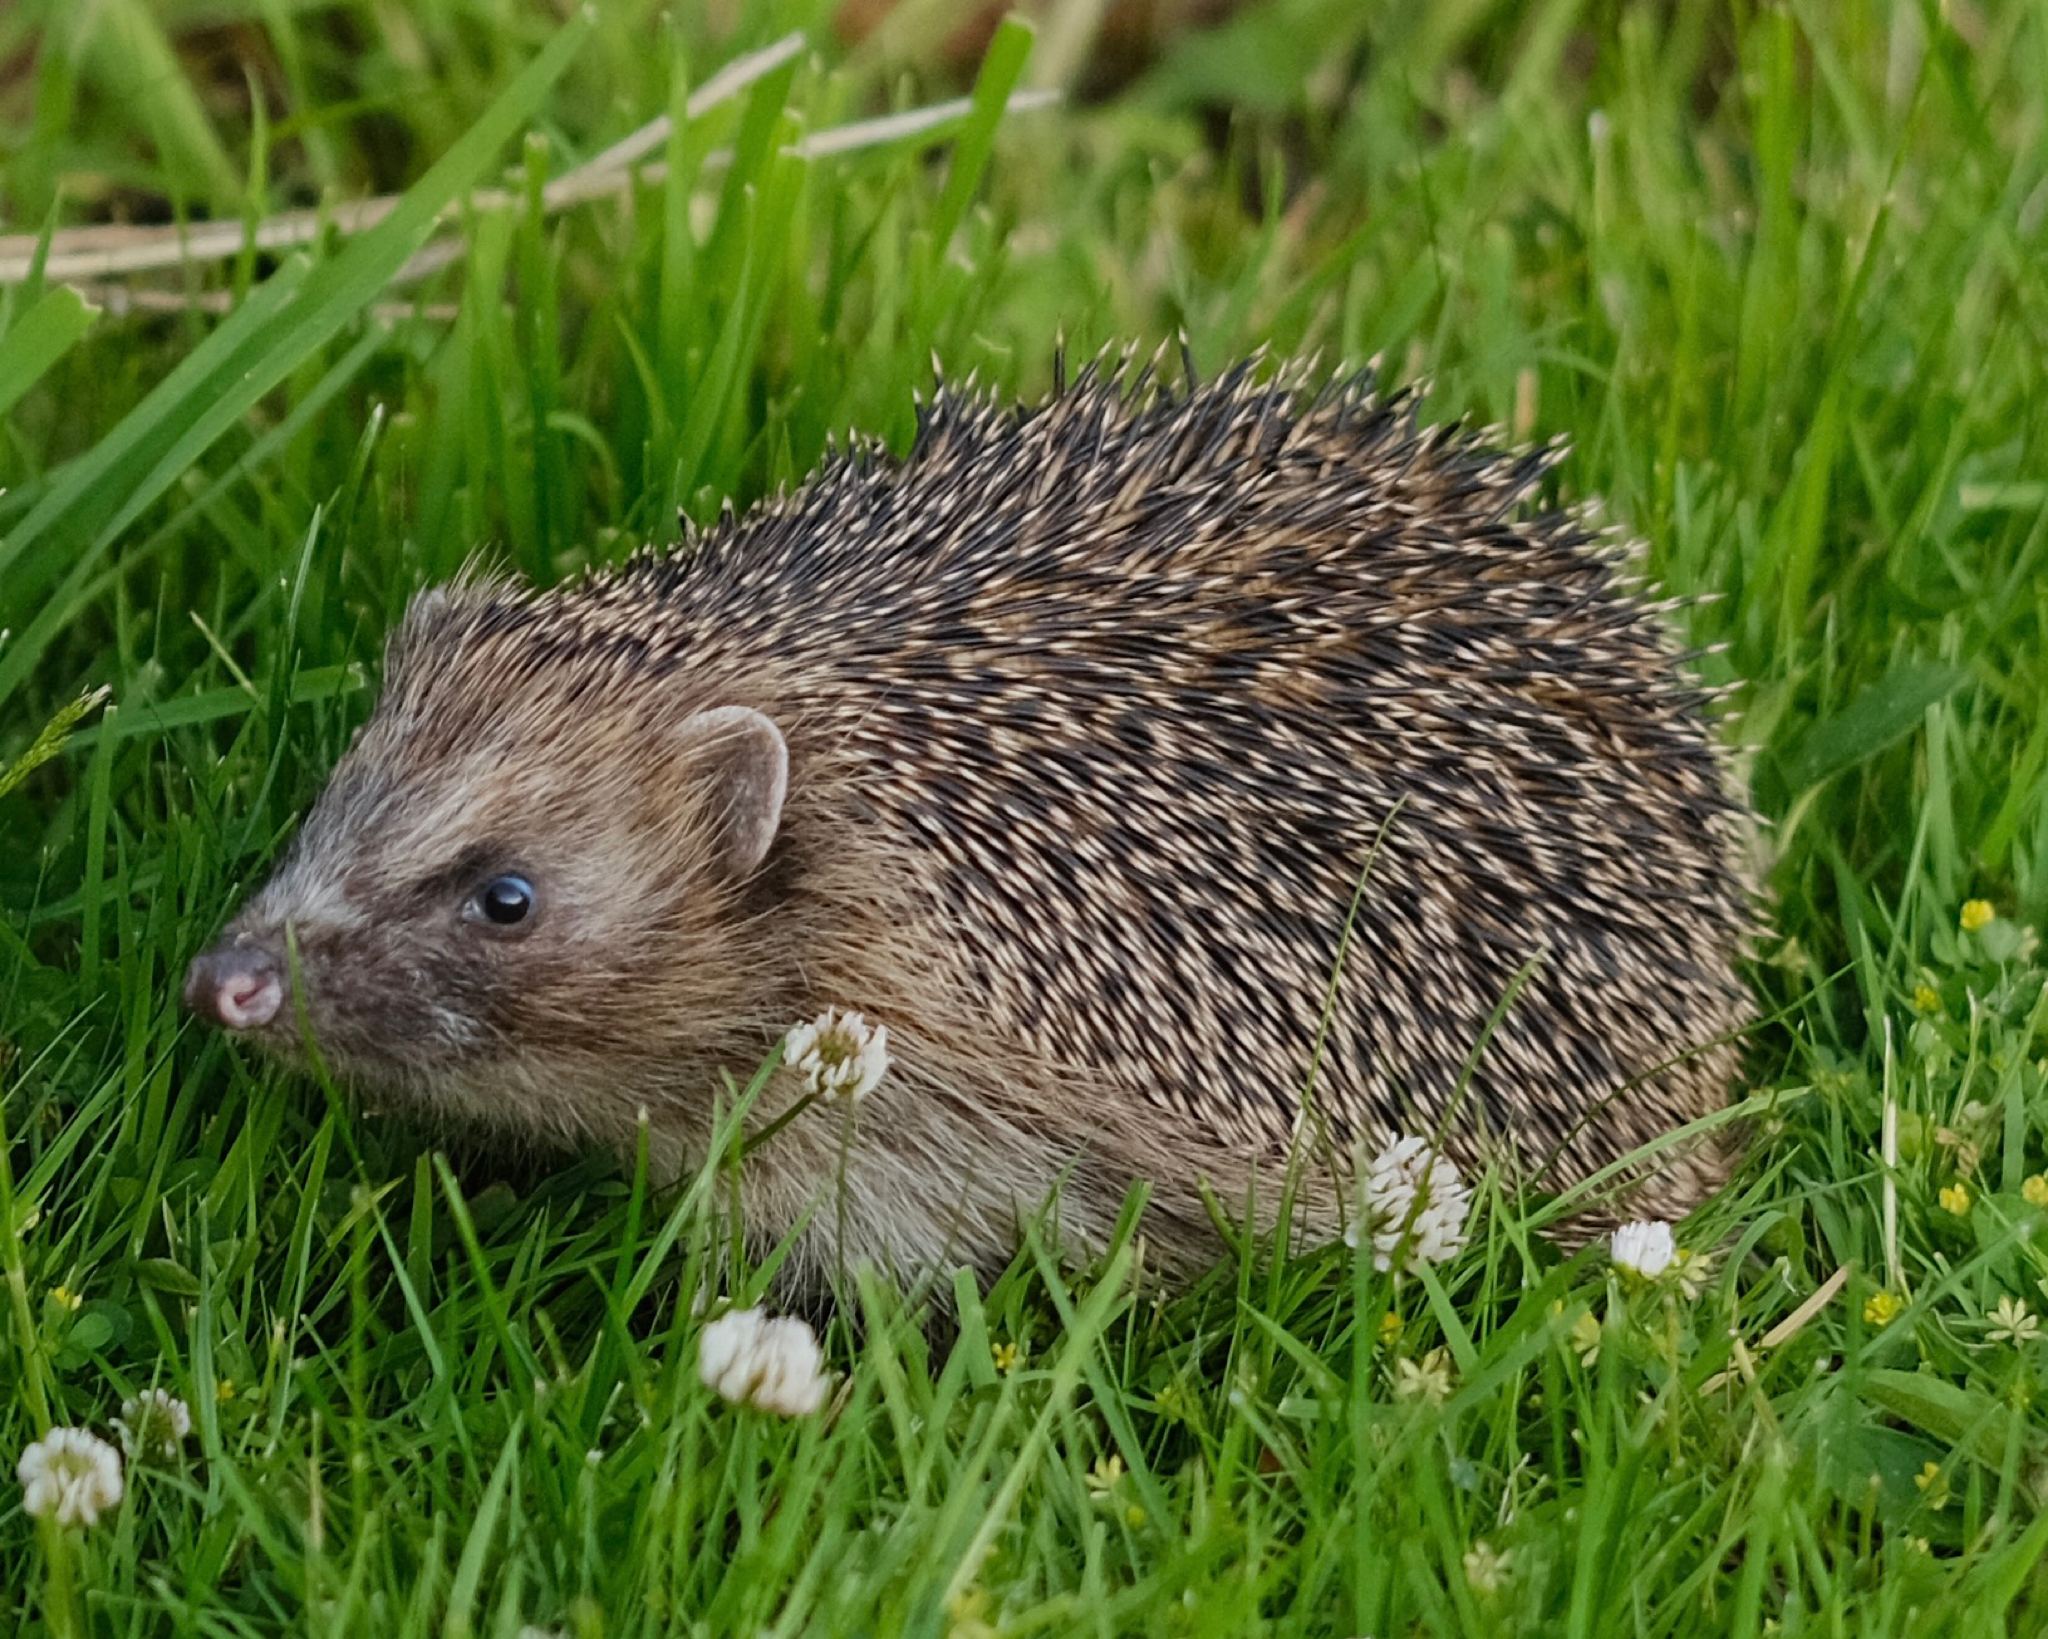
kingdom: Animalia
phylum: Chordata
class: Mammalia
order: Erinaceomorpha
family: Erinaceidae
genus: Erinaceus
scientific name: Erinaceus europaeus
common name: West european hedgehog
